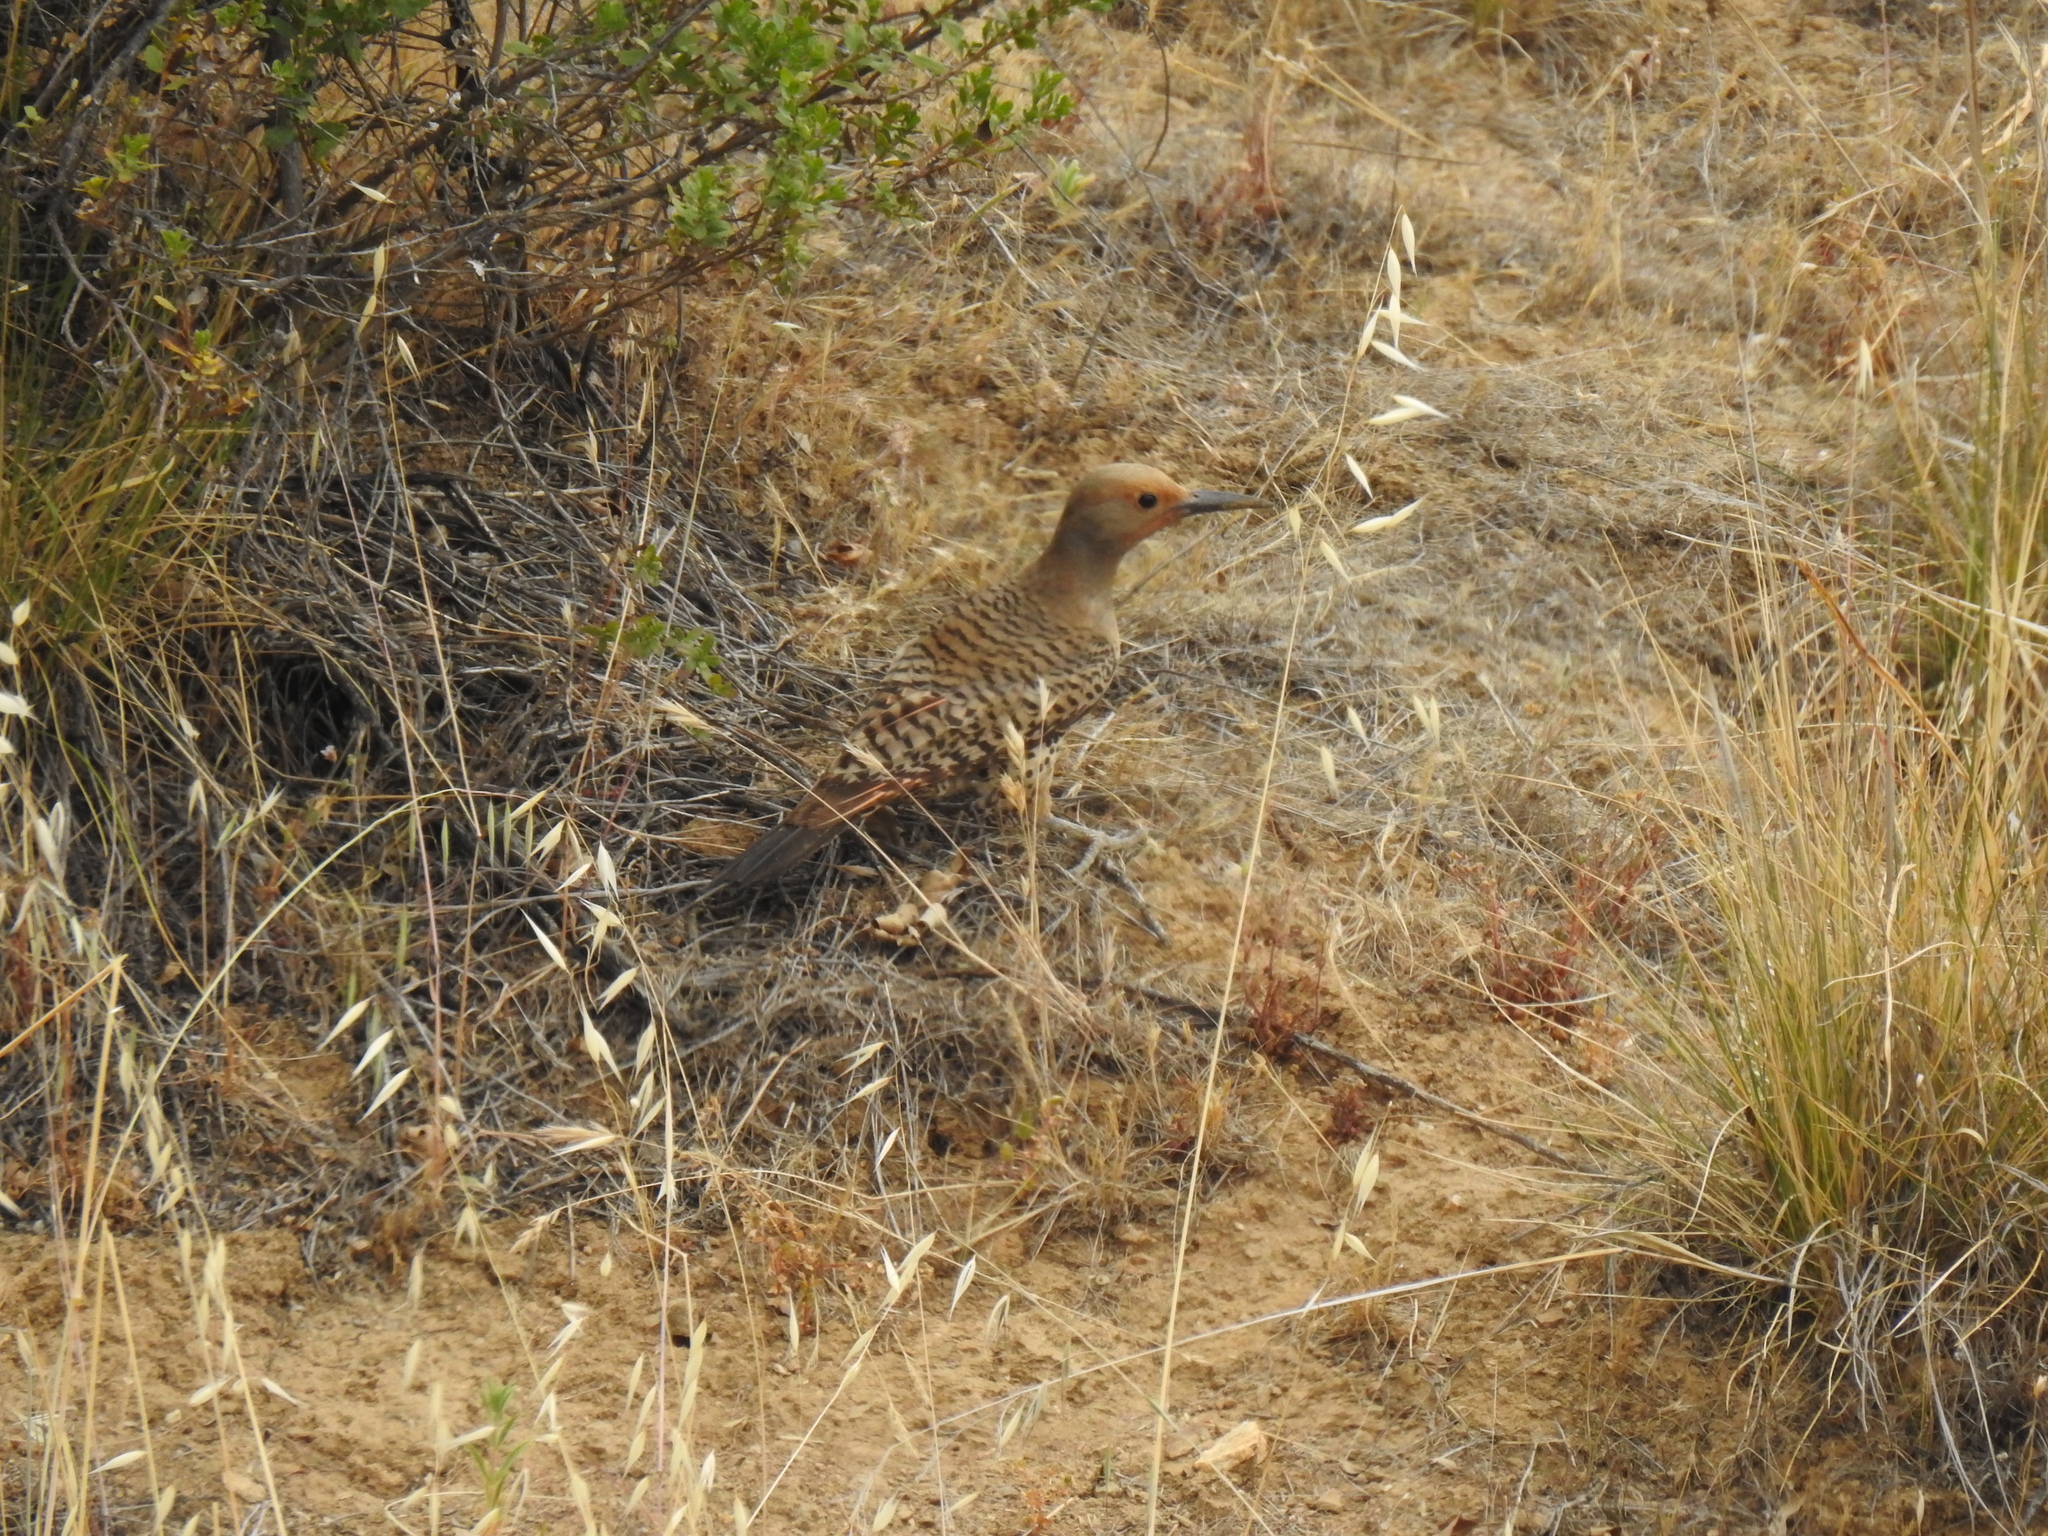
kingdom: Animalia
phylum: Chordata
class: Aves
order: Piciformes
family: Picidae
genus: Colaptes
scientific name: Colaptes auratus
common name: Northern flicker
